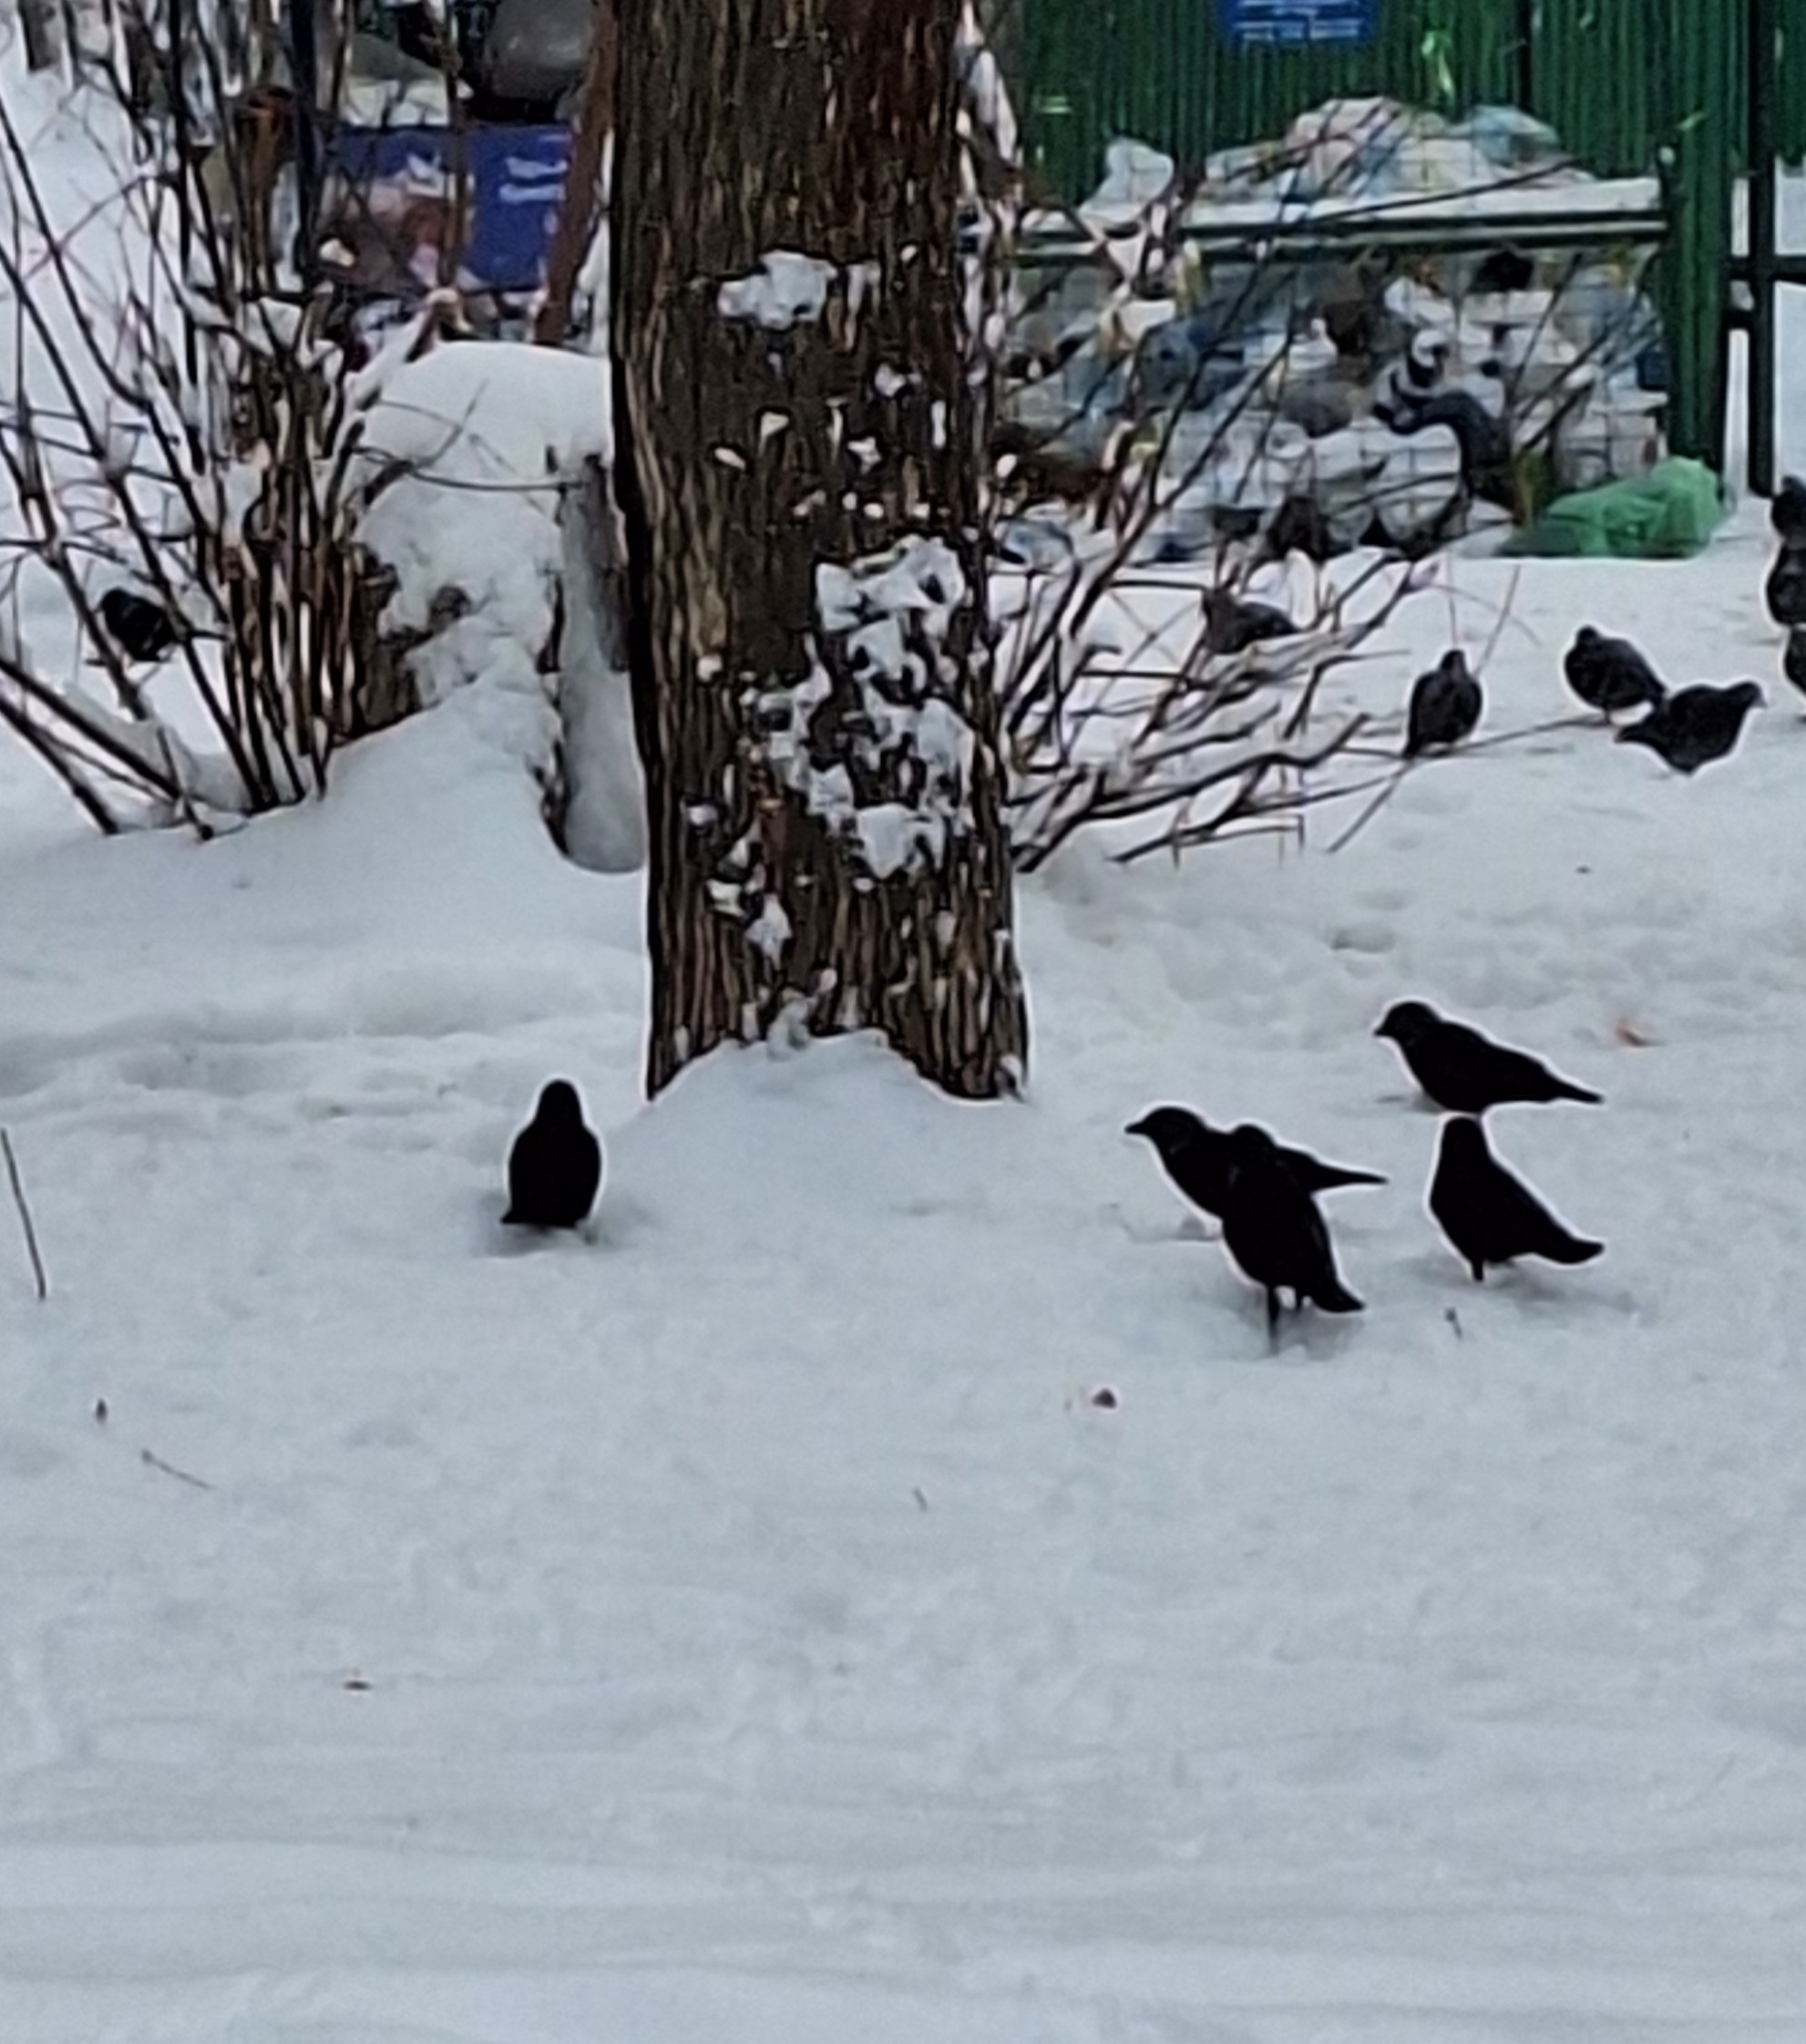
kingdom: Animalia
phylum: Chordata
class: Aves
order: Passeriformes
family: Corvidae
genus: Coloeus
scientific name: Coloeus monedula
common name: Western jackdaw
